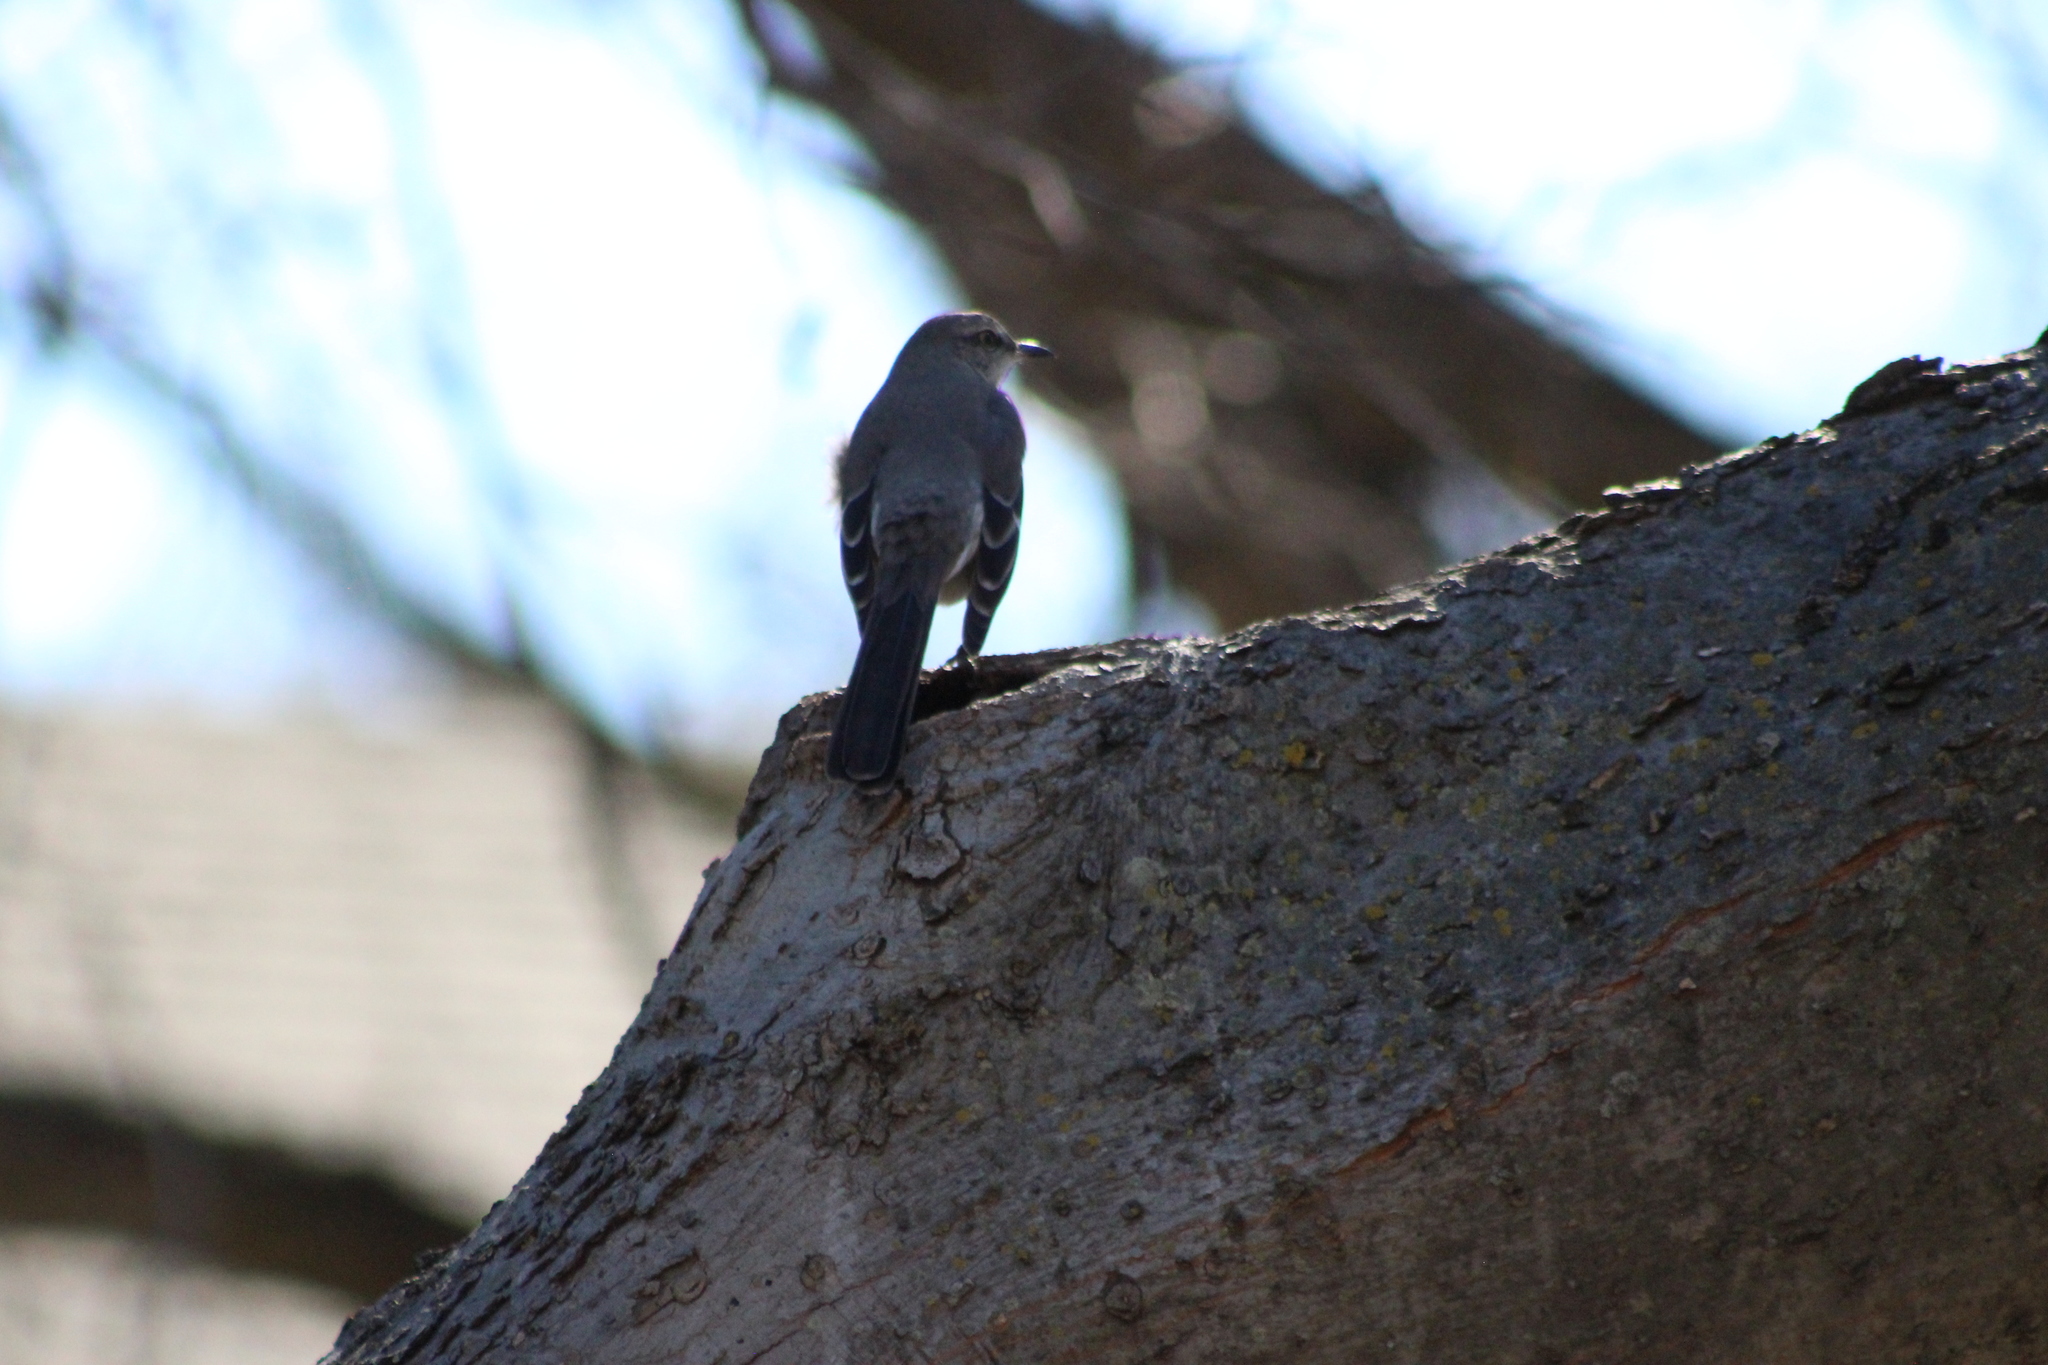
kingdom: Animalia
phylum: Chordata
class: Aves
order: Passeriformes
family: Mimidae
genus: Mimus
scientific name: Mimus polyglottos
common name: Northern mockingbird
